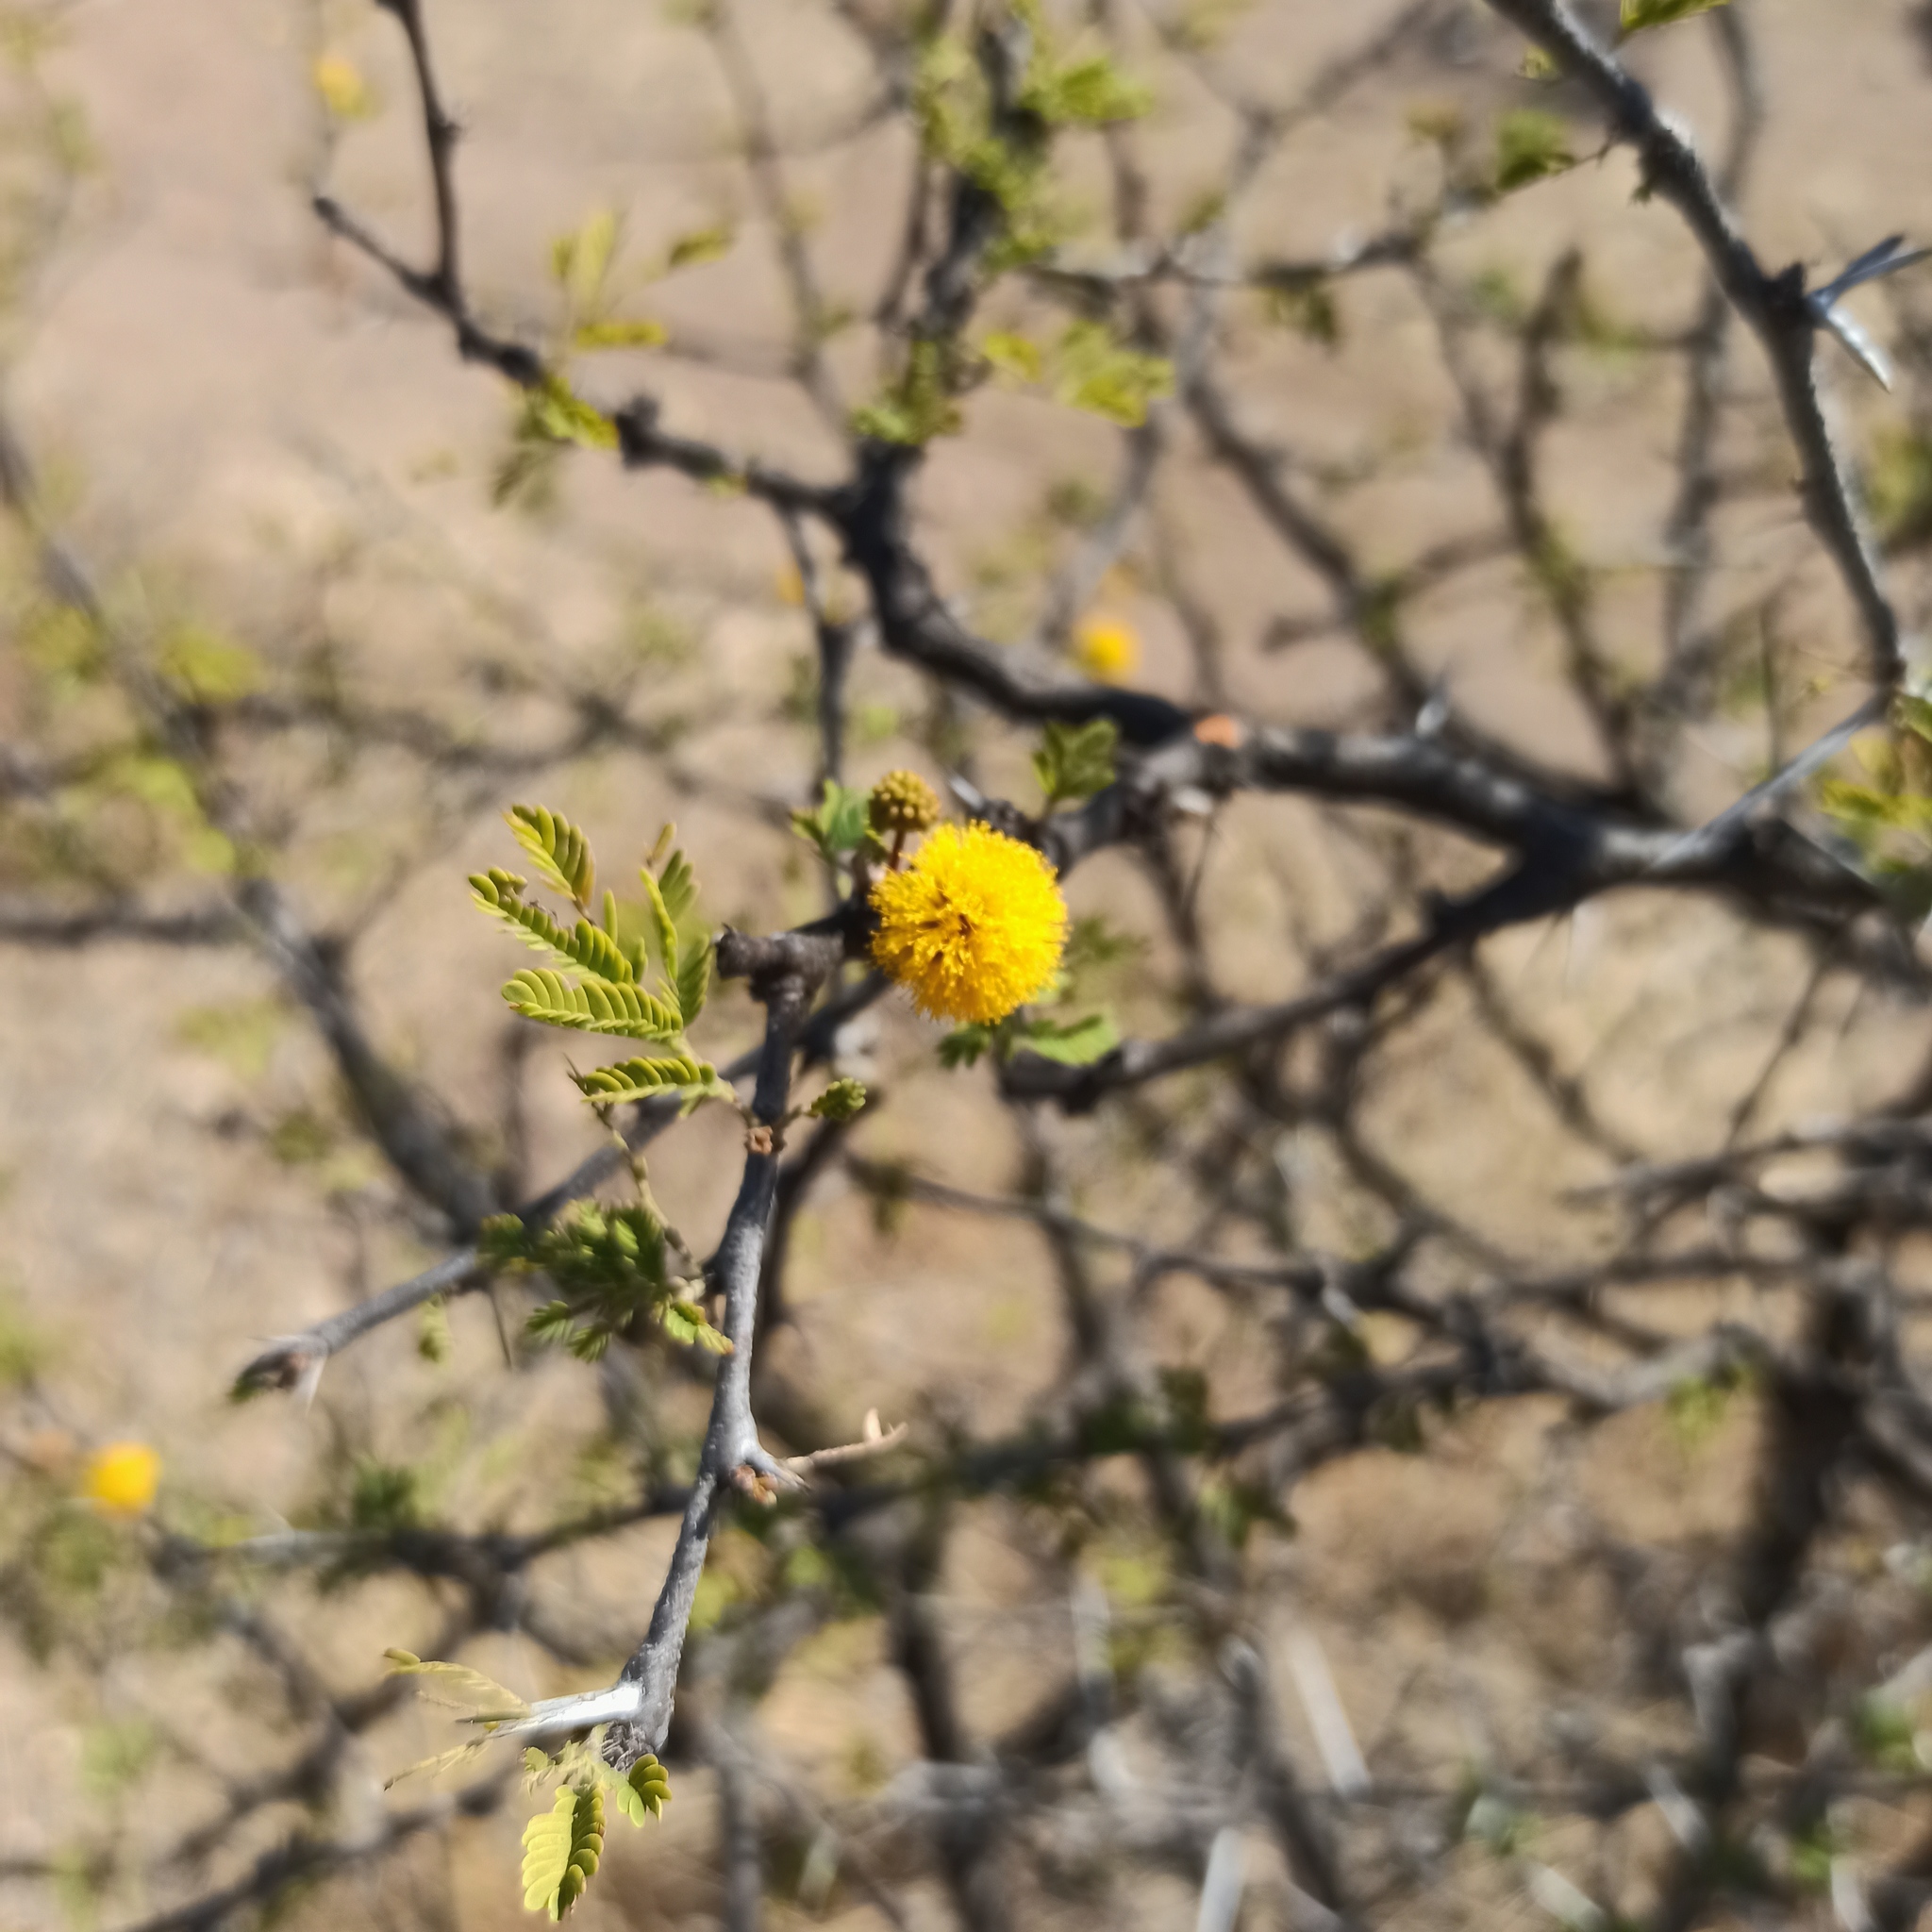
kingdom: Plantae
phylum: Tracheophyta
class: Magnoliopsida
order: Fabales
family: Fabaceae
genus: Vachellia
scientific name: Vachellia farnesiana
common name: Sweet acacia
